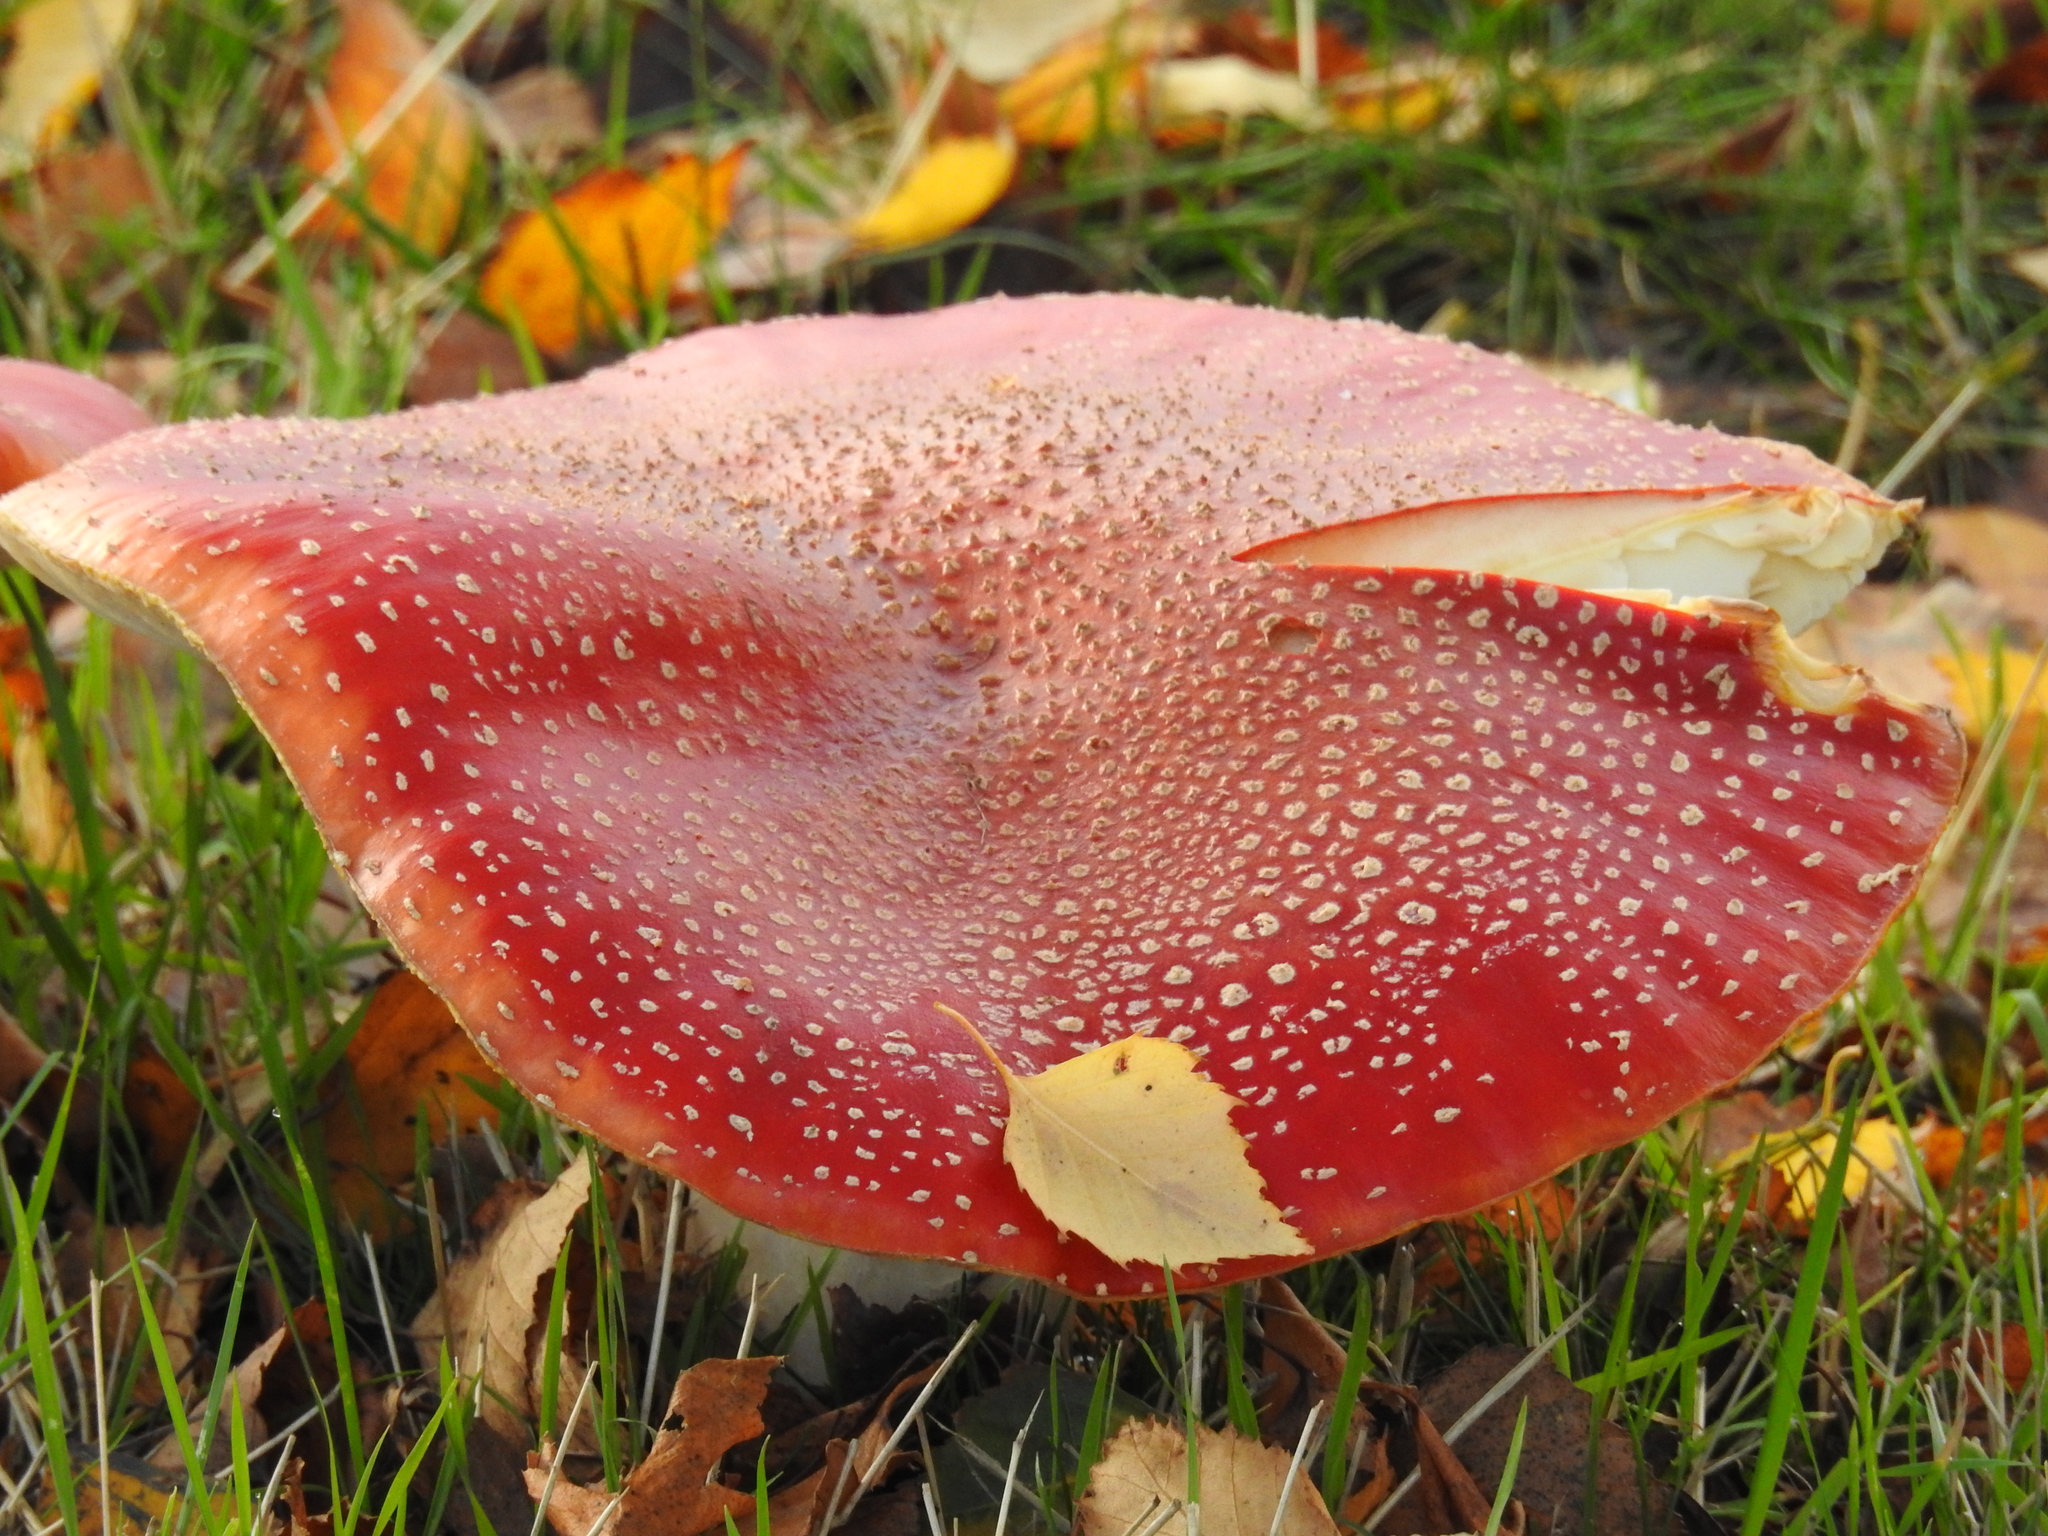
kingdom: Fungi
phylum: Basidiomycota
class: Agaricomycetes
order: Agaricales
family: Amanitaceae
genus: Amanita
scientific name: Amanita muscaria
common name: Fly agaric
